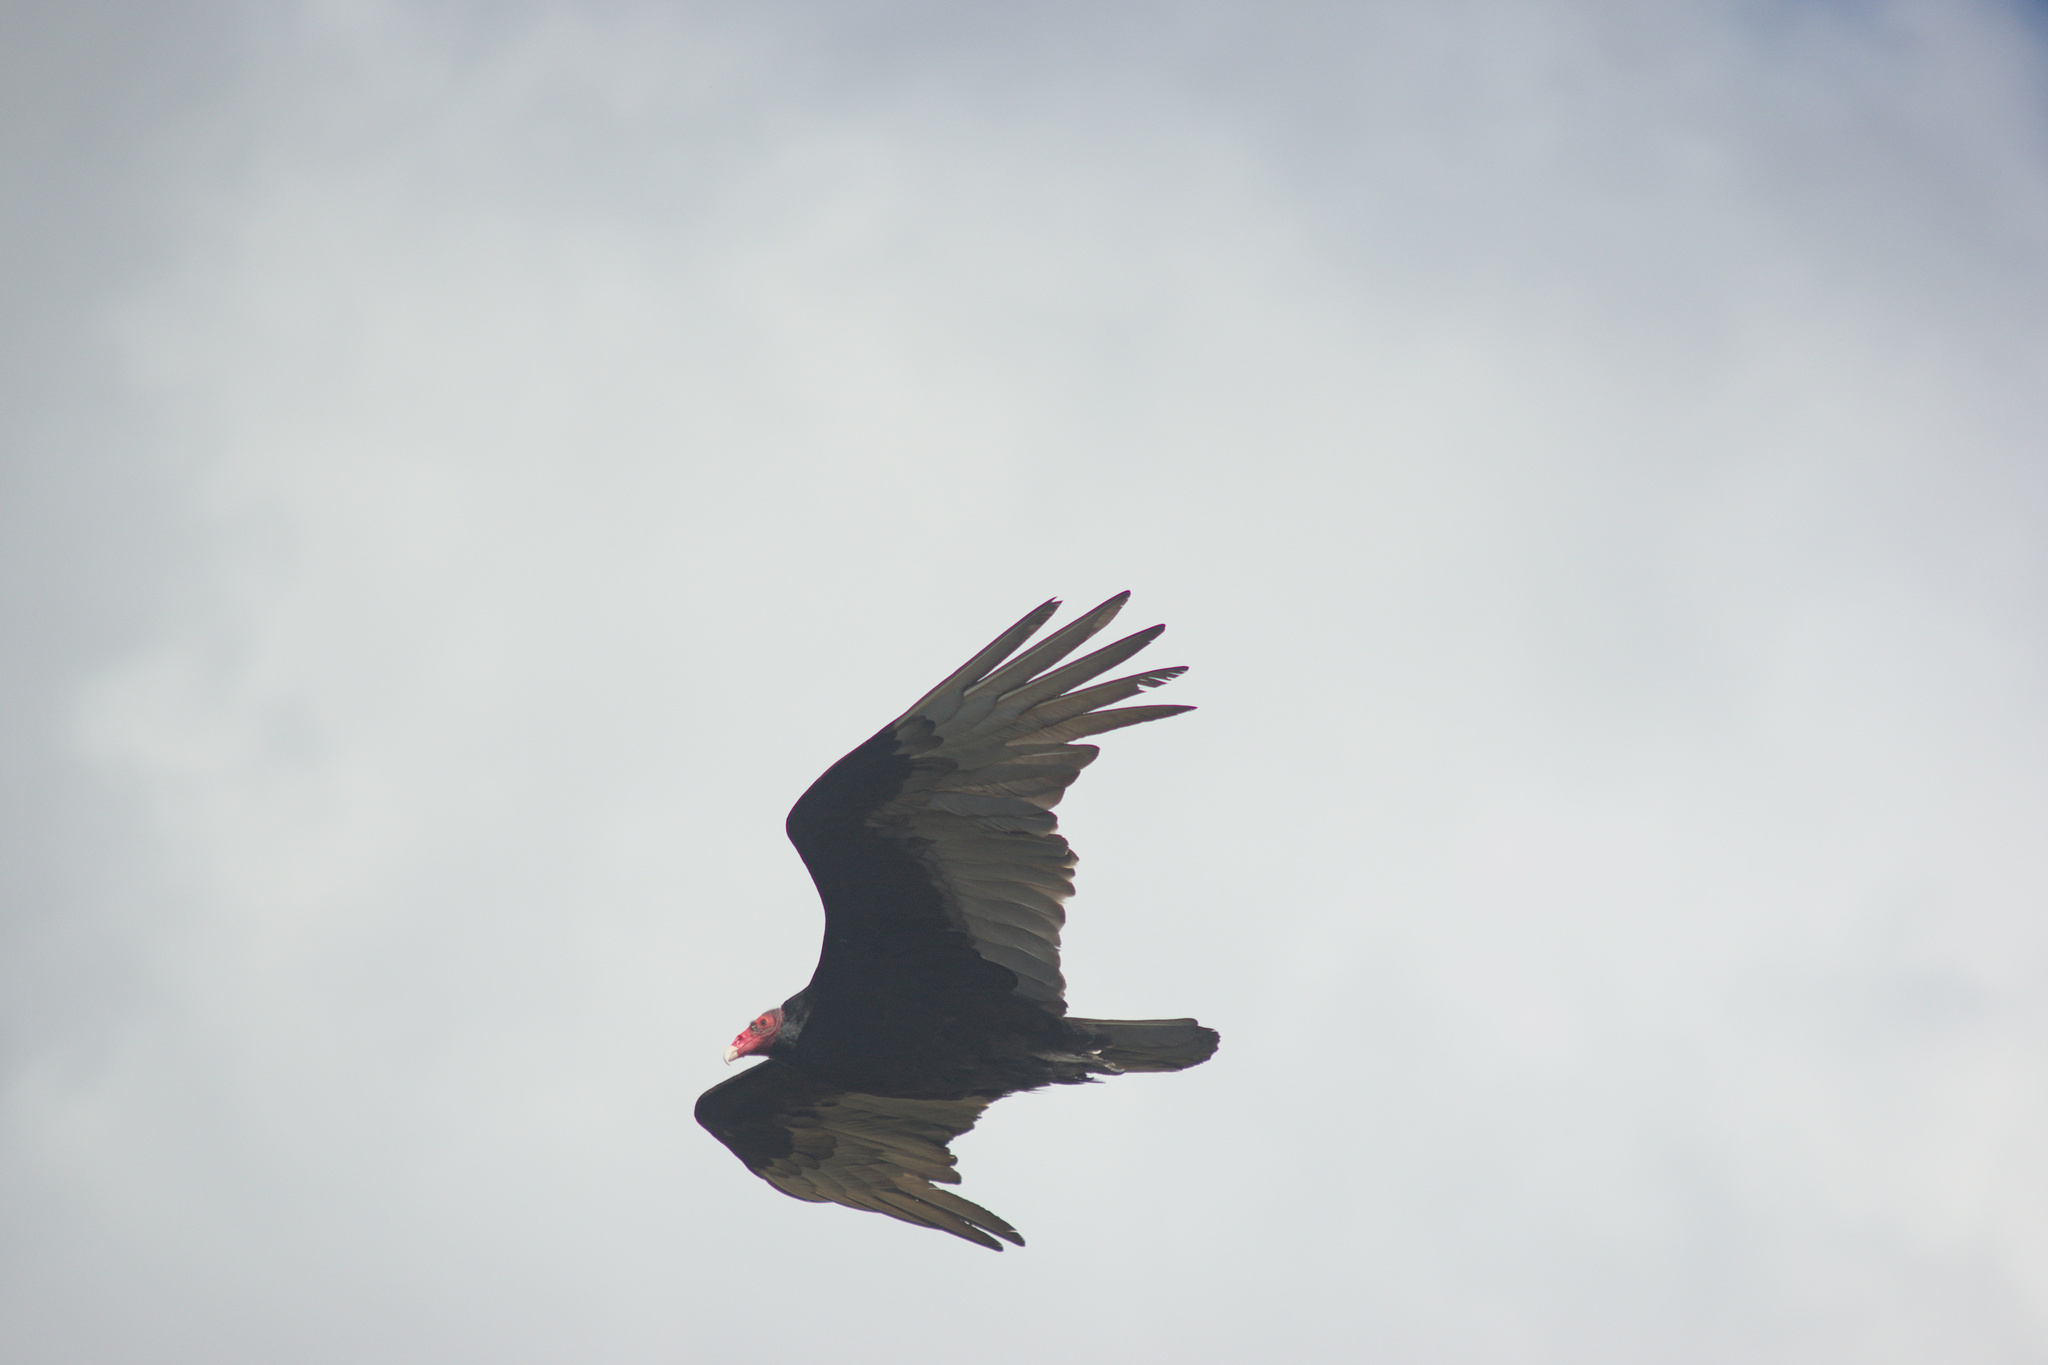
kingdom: Animalia
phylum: Chordata
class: Aves
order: Accipitriformes
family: Cathartidae
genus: Cathartes
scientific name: Cathartes aura
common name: Turkey vulture
